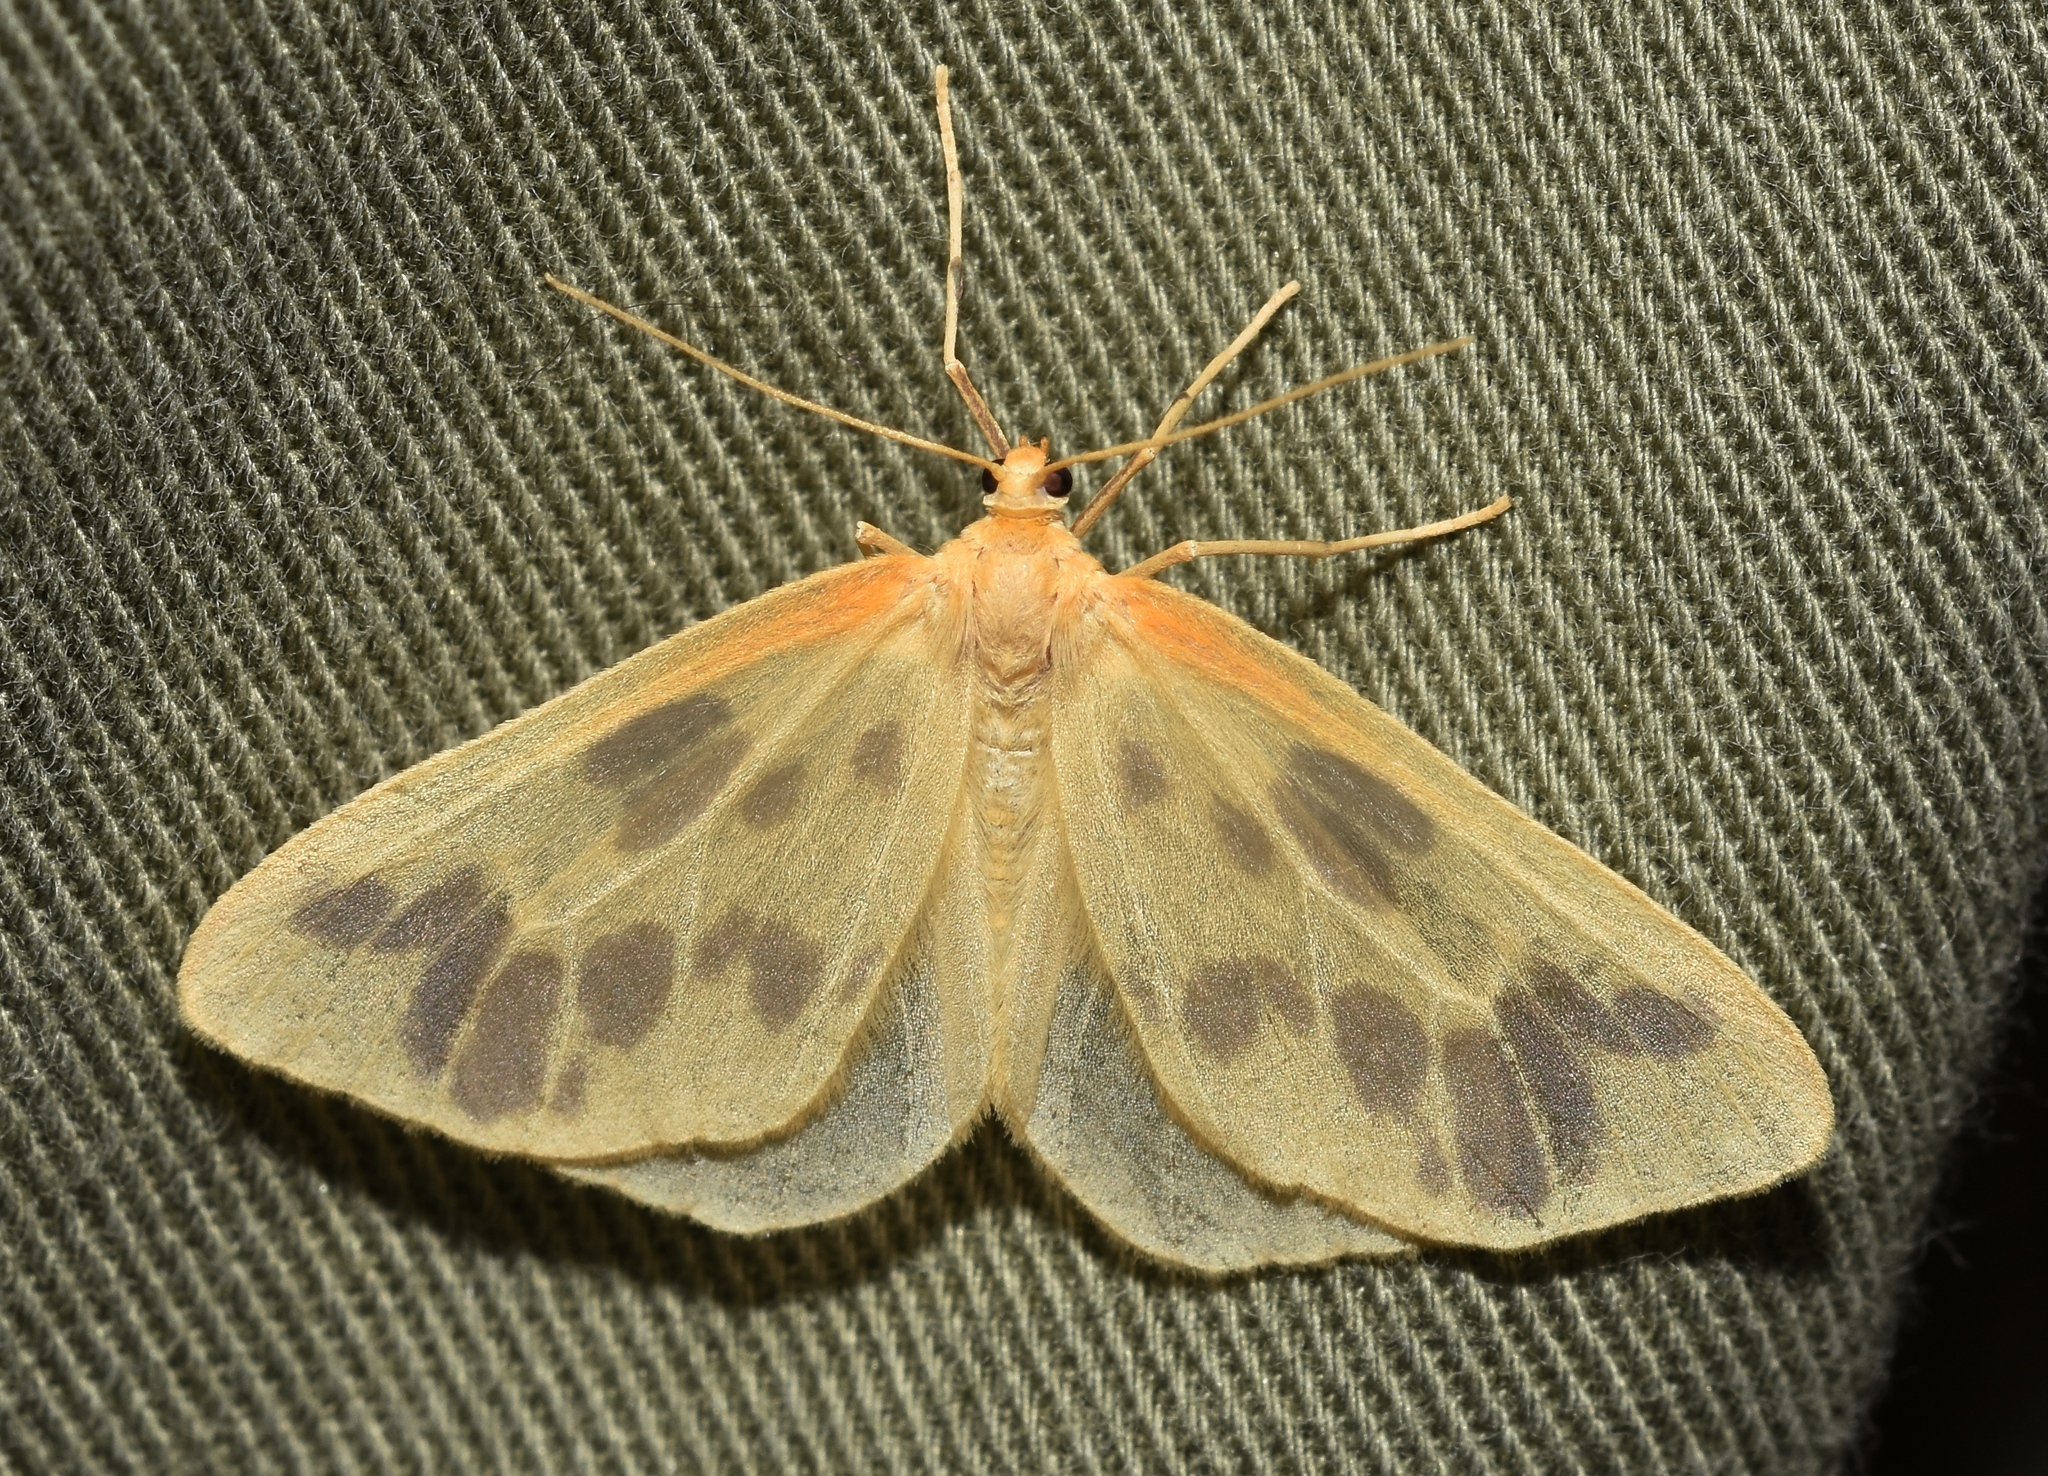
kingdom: Animalia
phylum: Arthropoda
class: Insecta
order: Lepidoptera
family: Geometridae
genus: Eubaphe
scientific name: Eubaphe mendica
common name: Beggar
